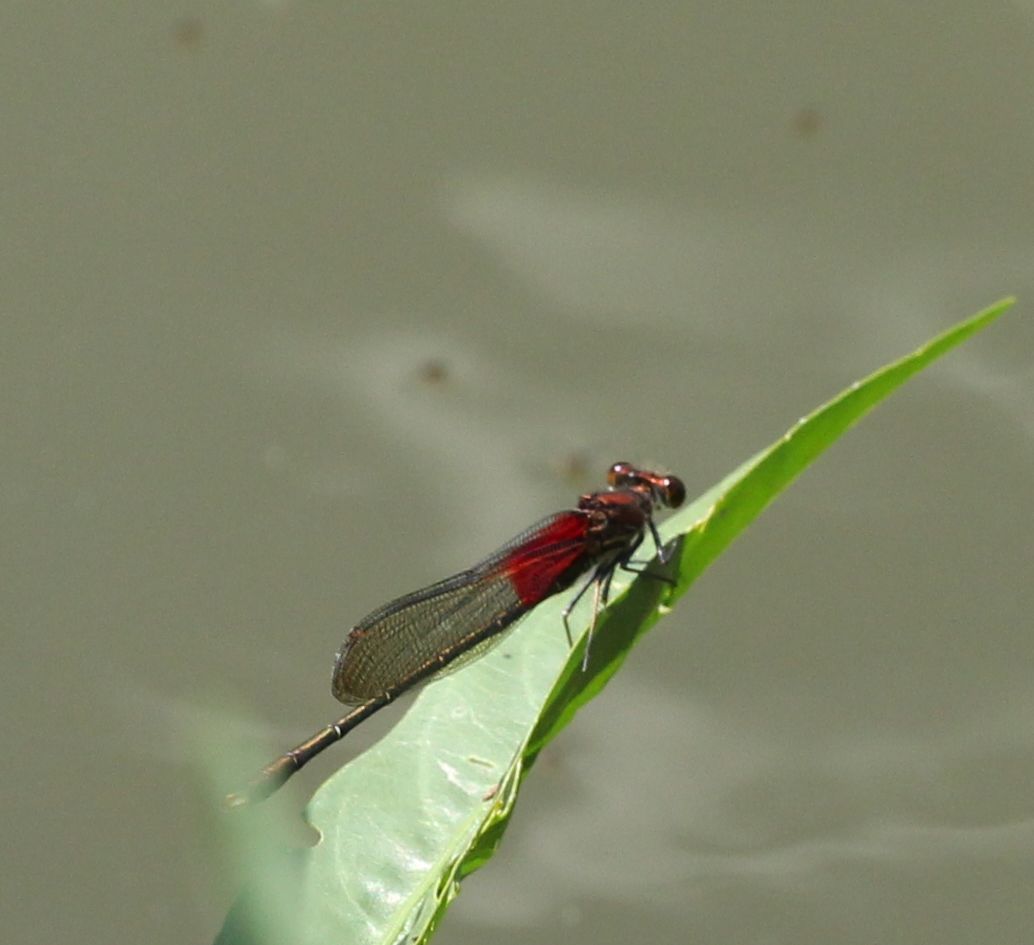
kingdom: Animalia
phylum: Arthropoda
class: Insecta
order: Odonata
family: Calopterygidae
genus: Hetaerina
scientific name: Hetaerina americana
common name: American rubyspot
